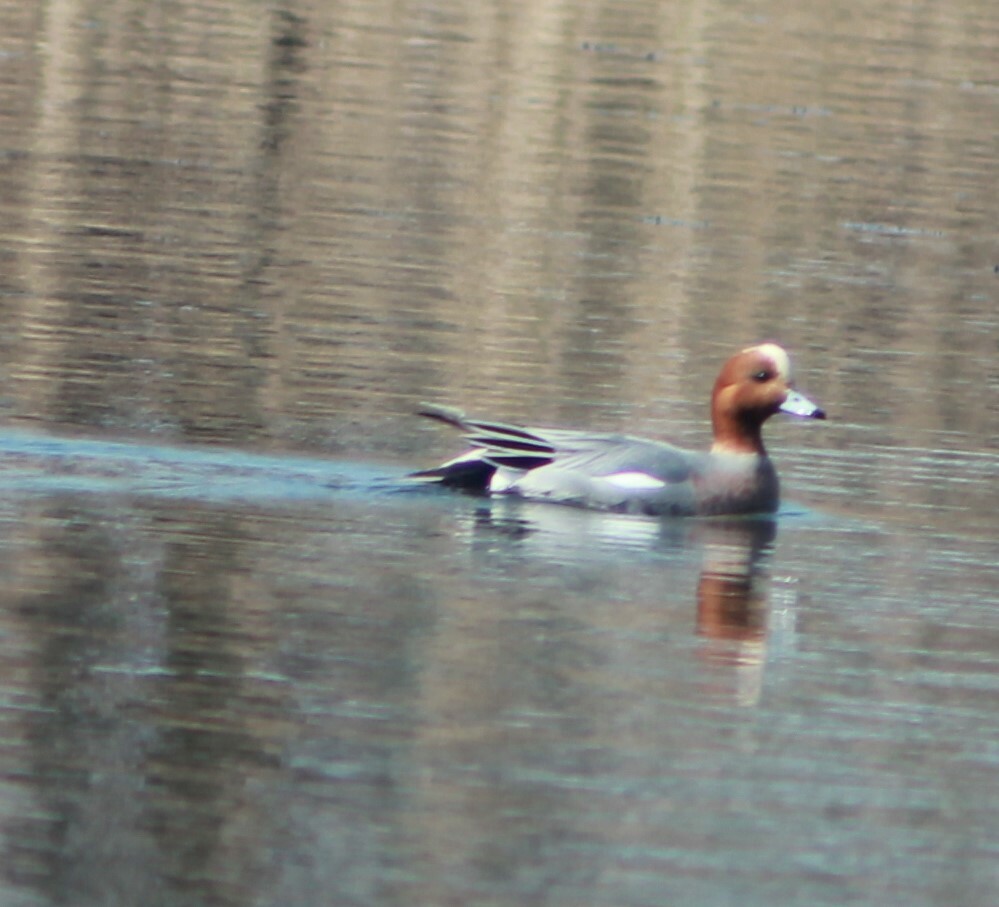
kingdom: Animalia
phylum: Chordata
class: Aves
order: Anseriformes
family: Anatidae
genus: Mareca
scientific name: Mareca penelope
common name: Eurasian wigeon
